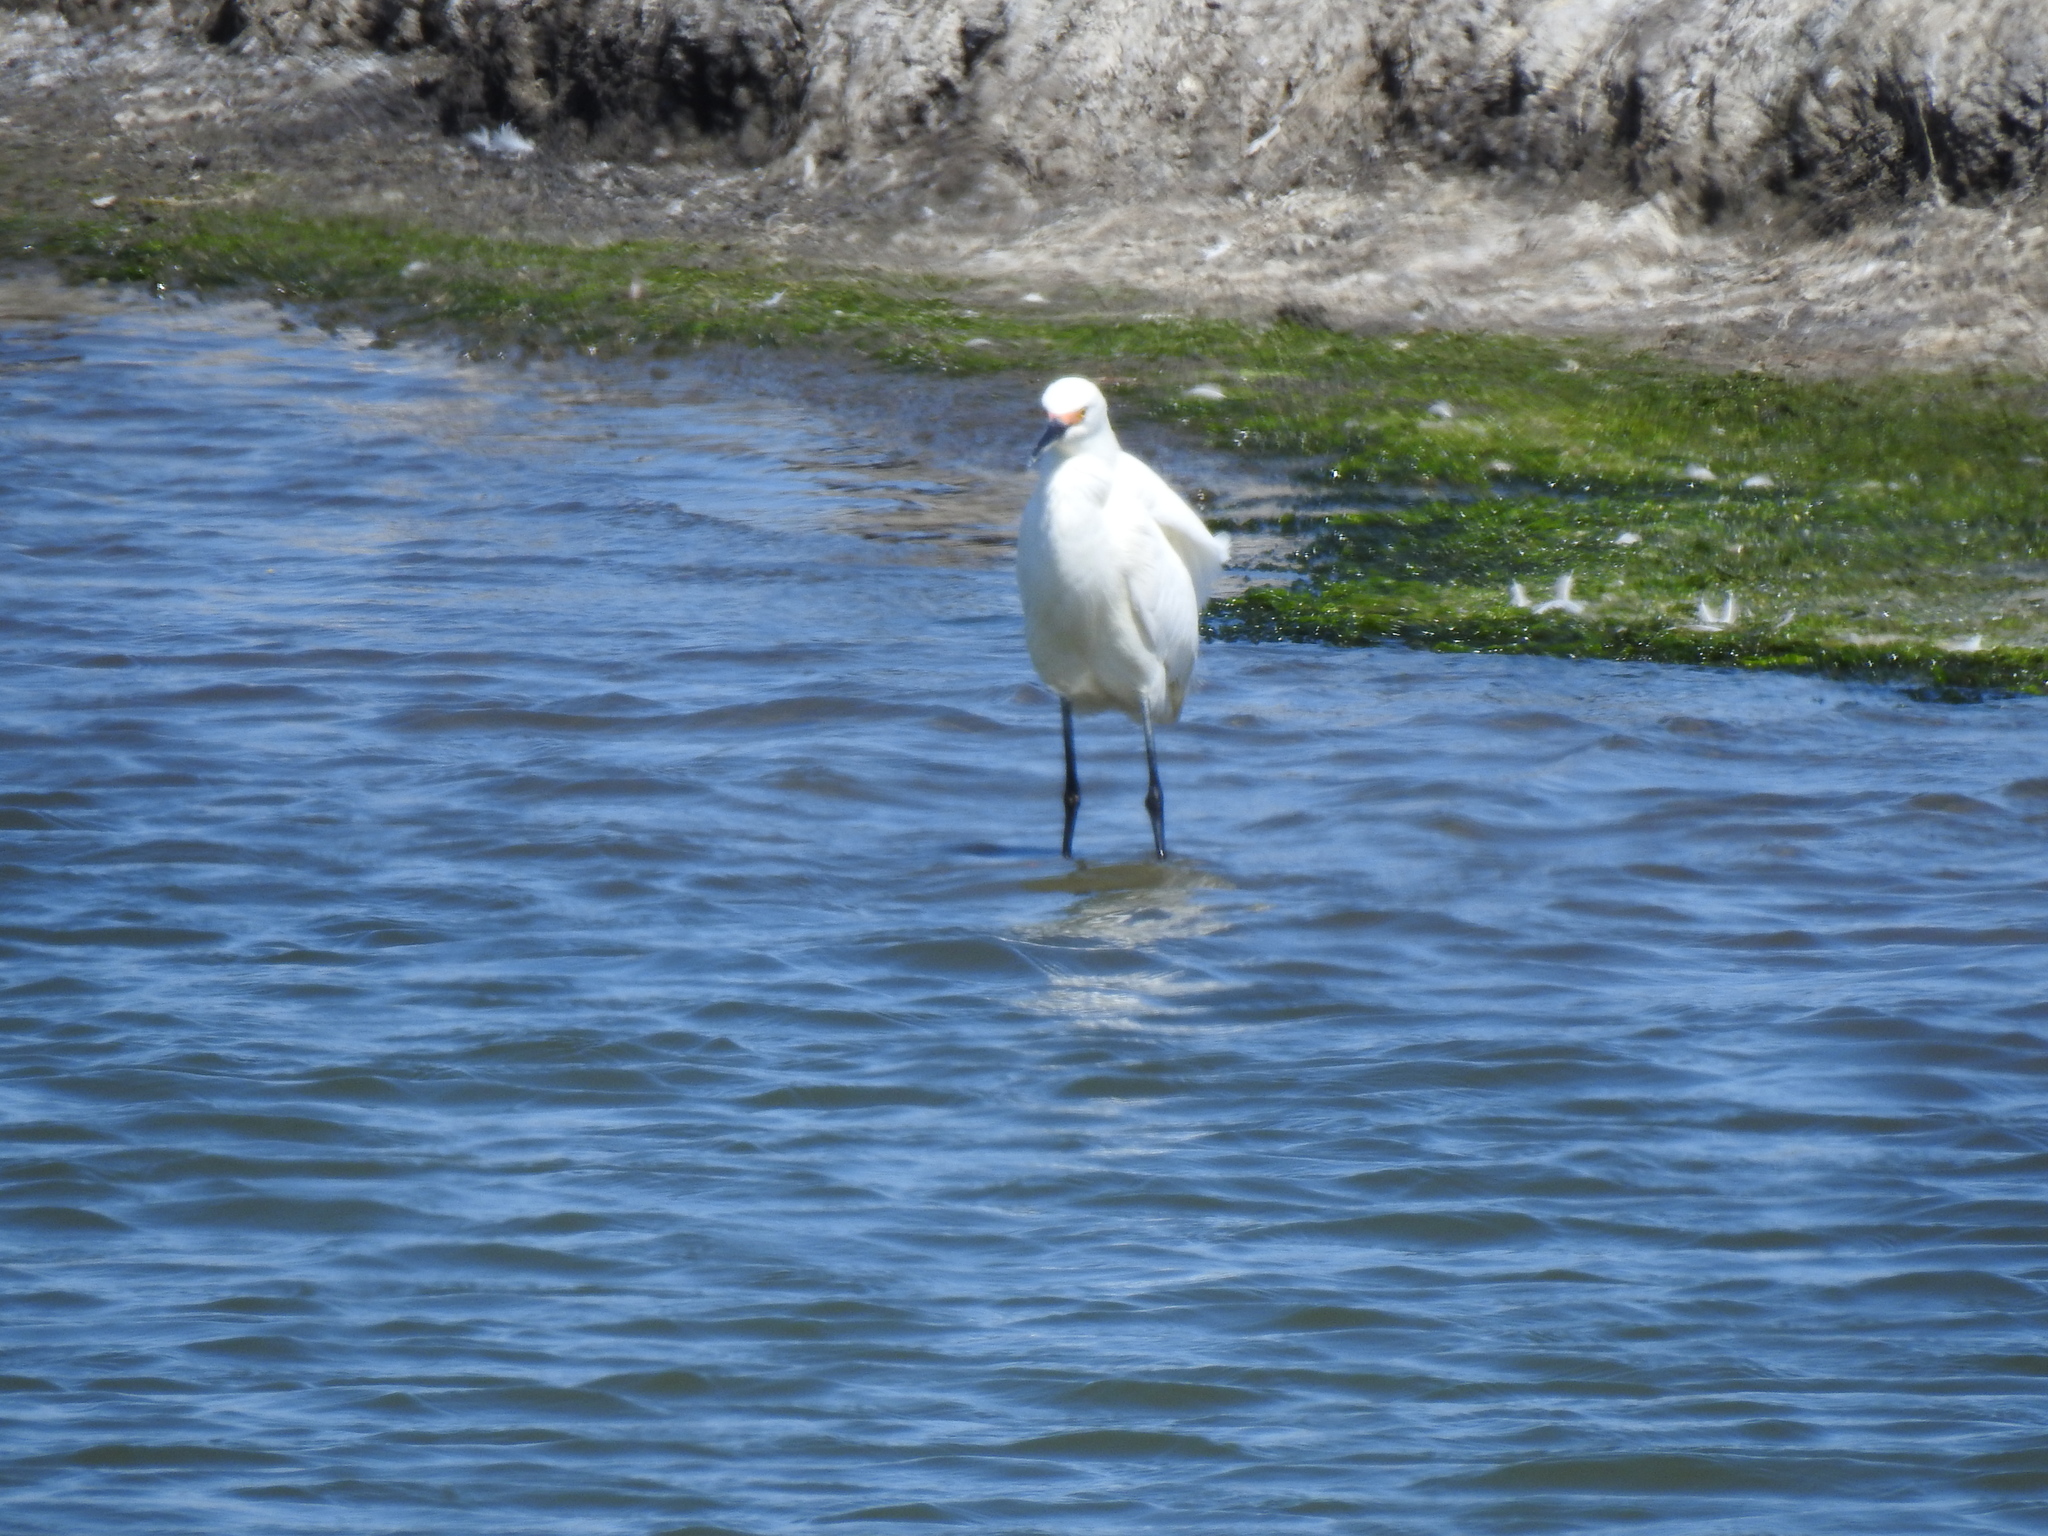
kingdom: Animalia
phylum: Chordata
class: Aves
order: Pelecaniformes
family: Ardeidae
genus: Egretta
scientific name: Egretta thula
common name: Snowy egret
